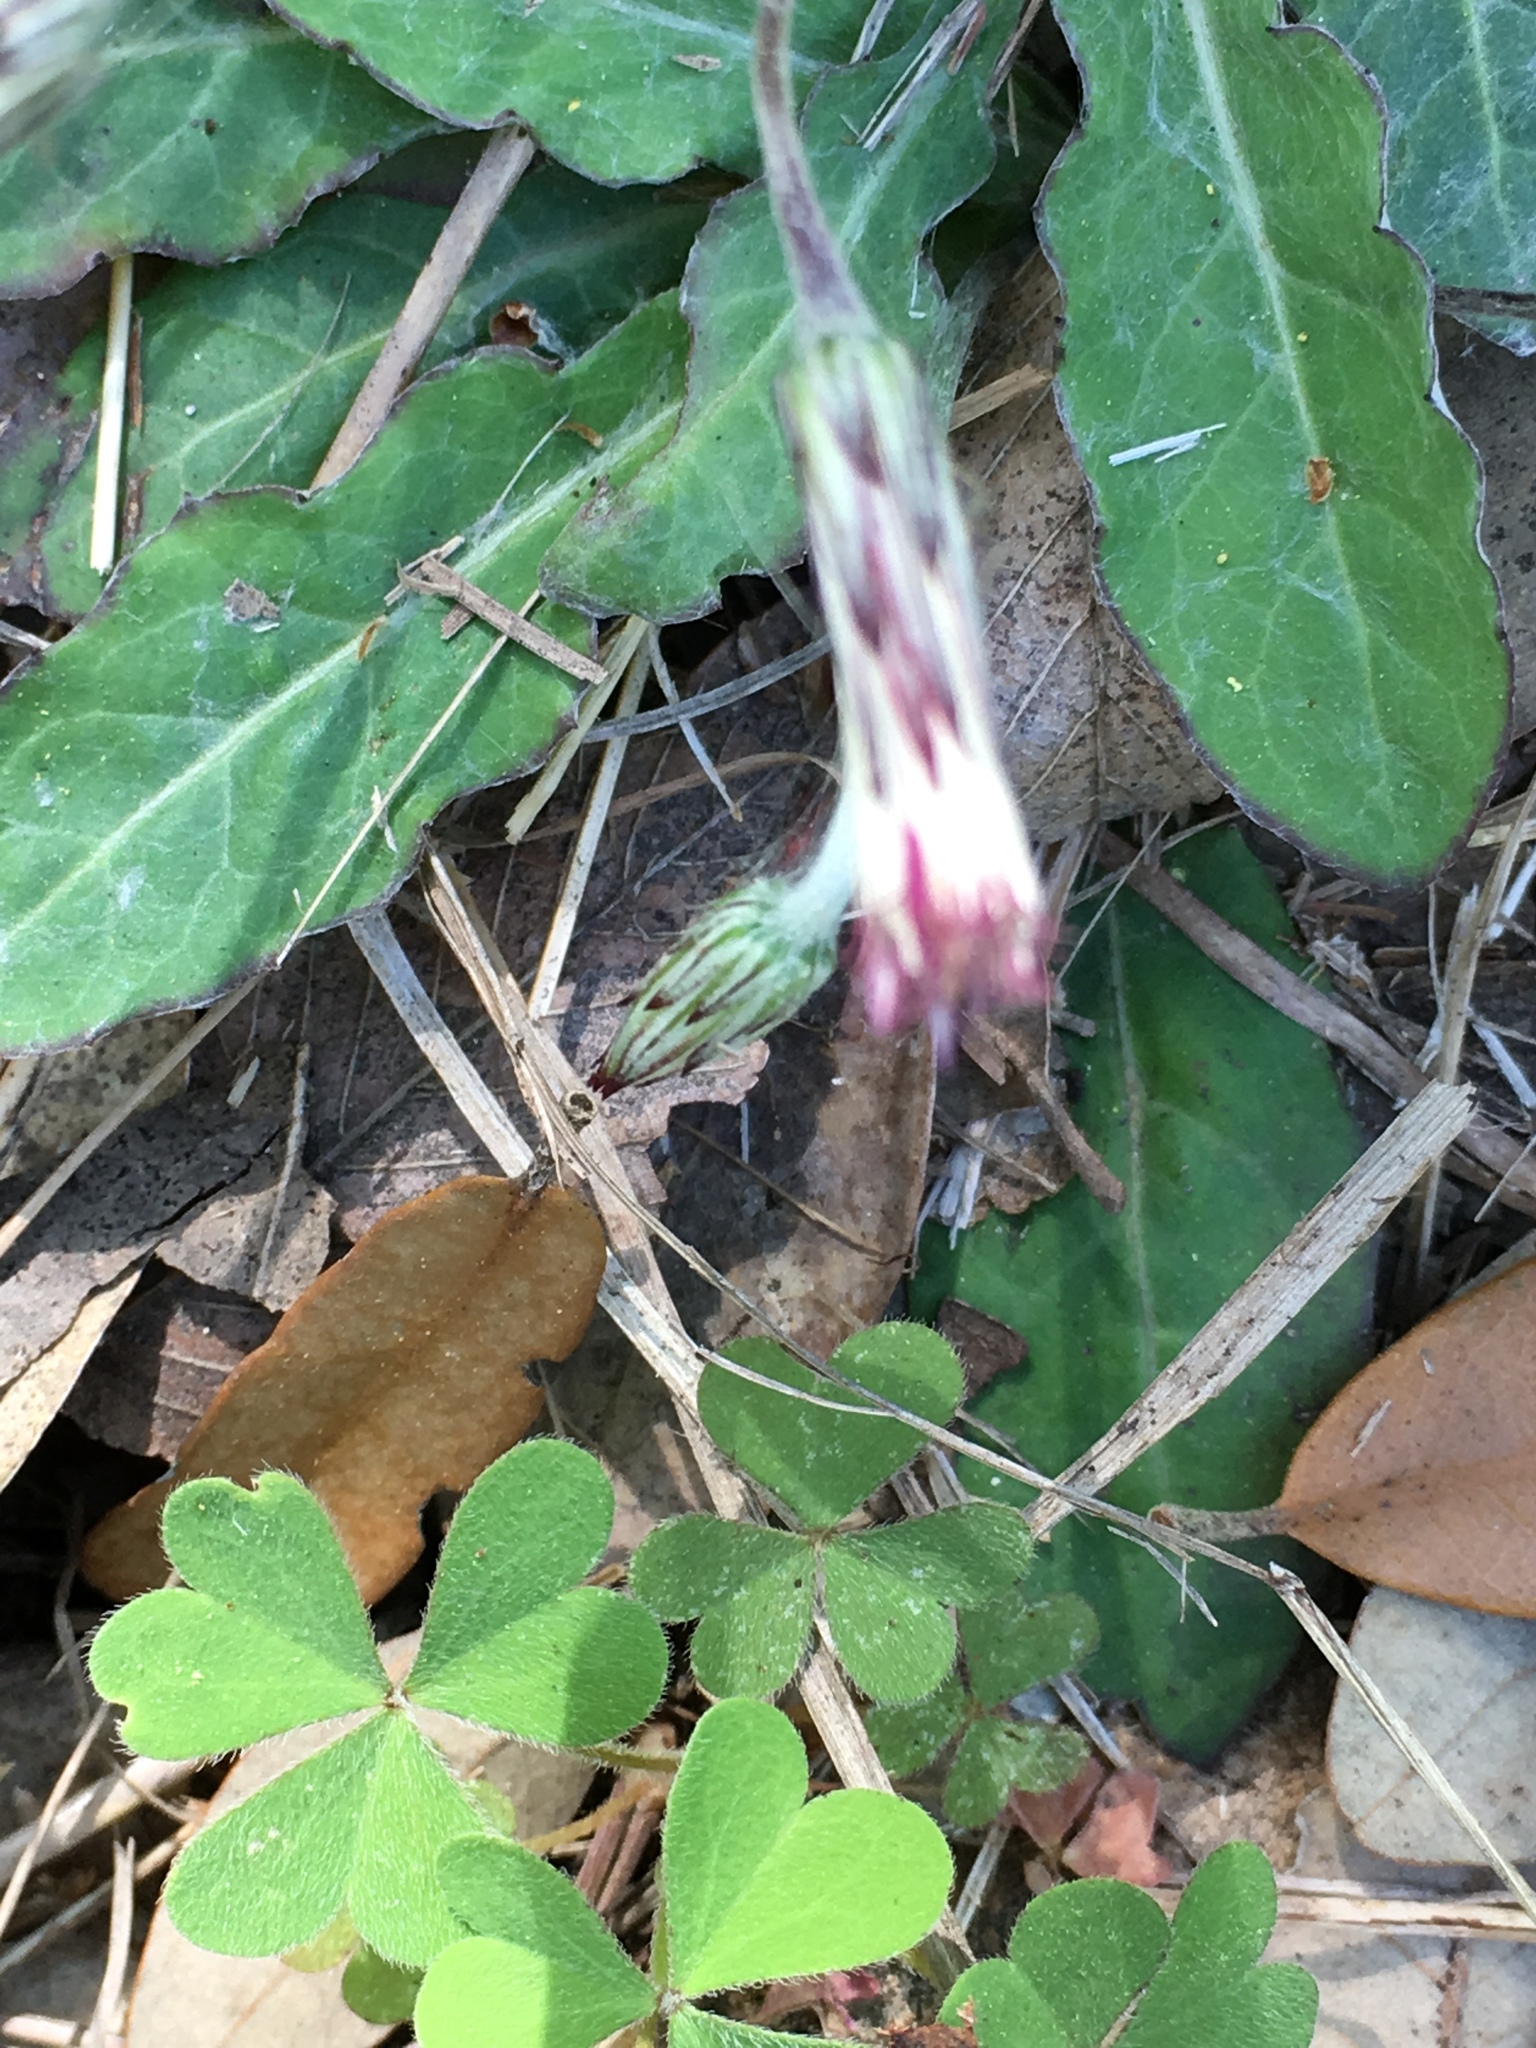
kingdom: Plantae
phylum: Tracheophyta
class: Magnoliopsida
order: Asterales
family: Asteraceae
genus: Chaptalia
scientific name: Chaptalia texana
